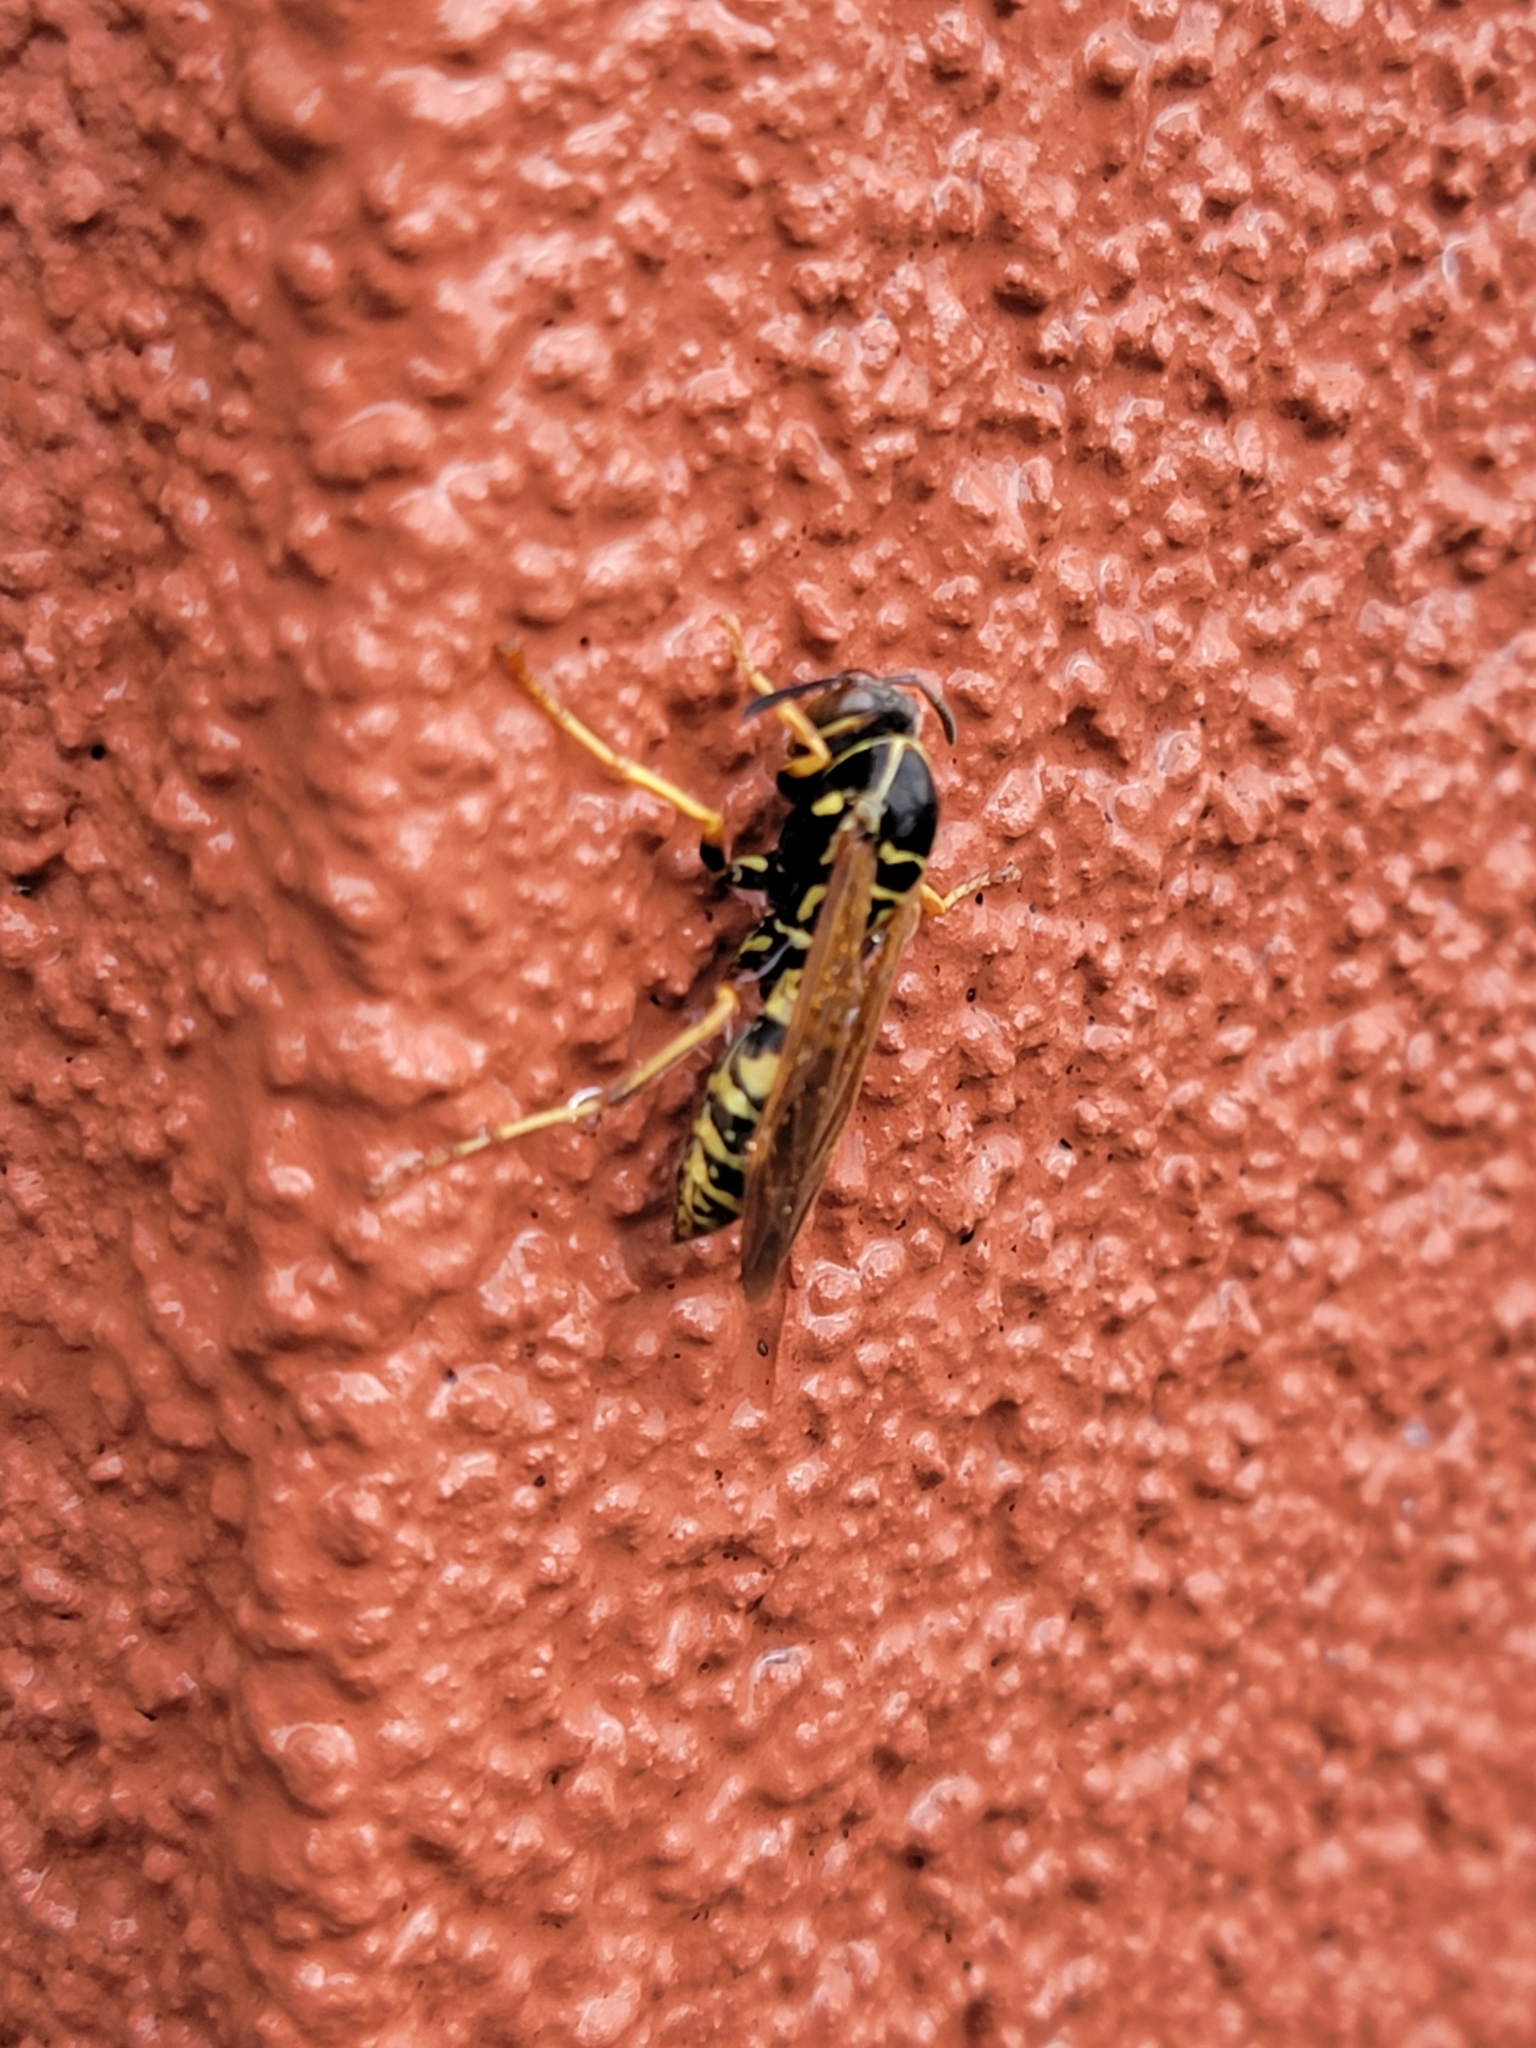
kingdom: Animalia
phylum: Arthropoda
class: Insecta
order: Hymenoptera
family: Eumenidae
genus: Polistes
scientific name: Polistes fuscatus
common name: Dark paper wasp
